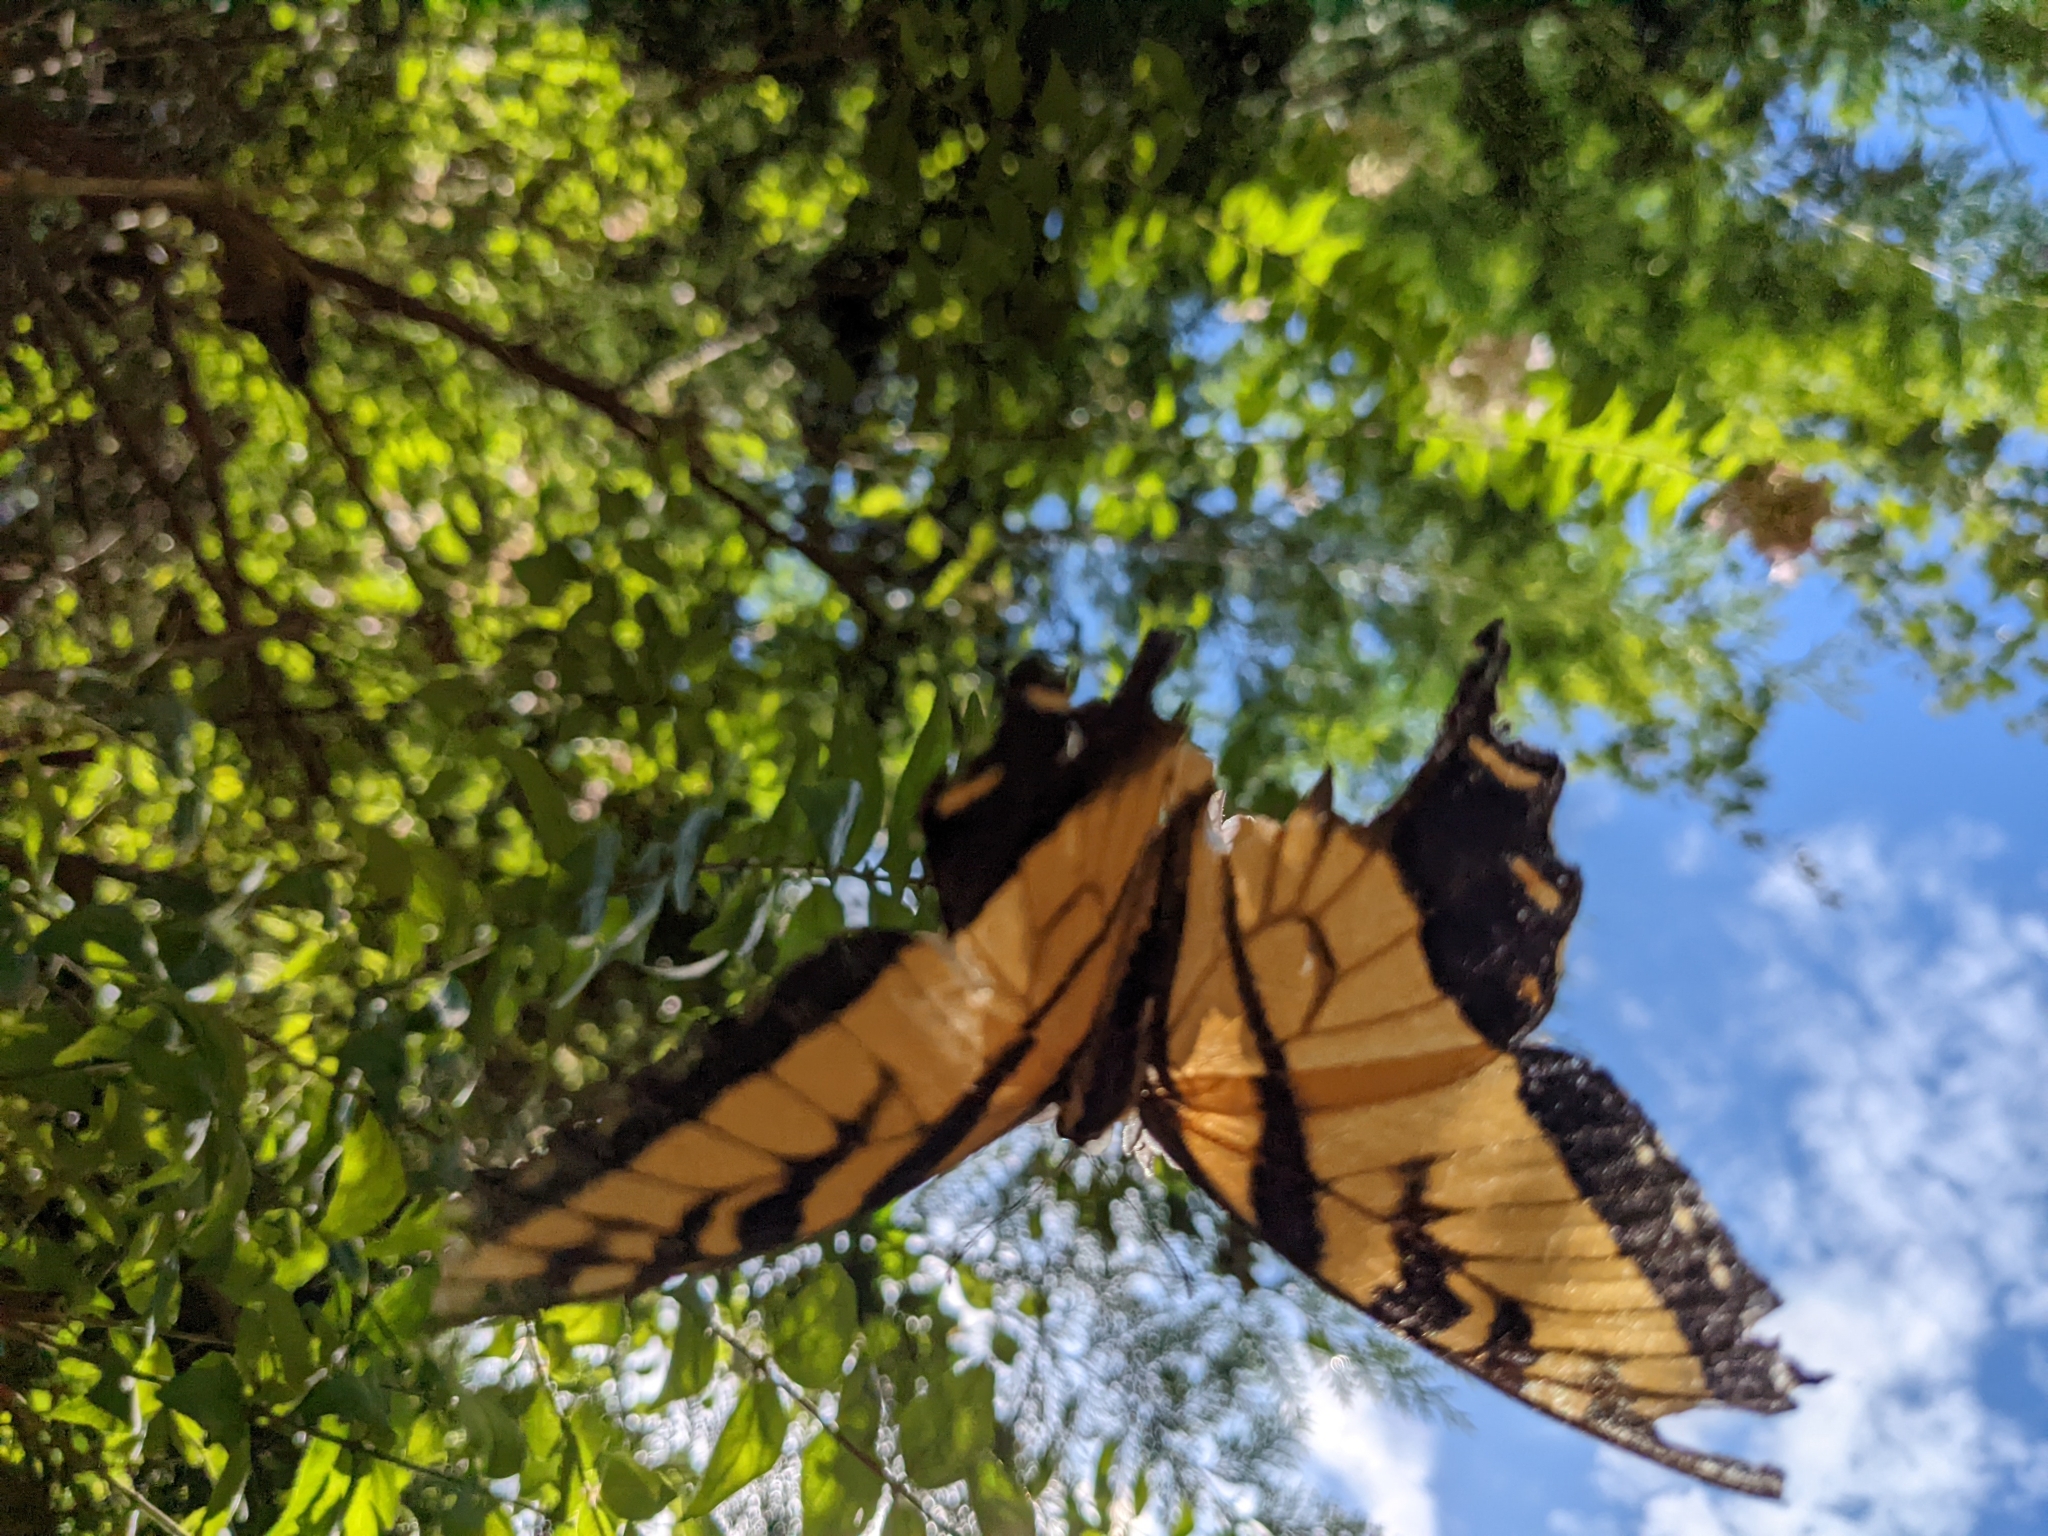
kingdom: Animalia
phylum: Arthropoda
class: Insecta
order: Lepidoptera
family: Papilionidae
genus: Papilio
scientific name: Papilio glaucus
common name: Tiger swallowtail
